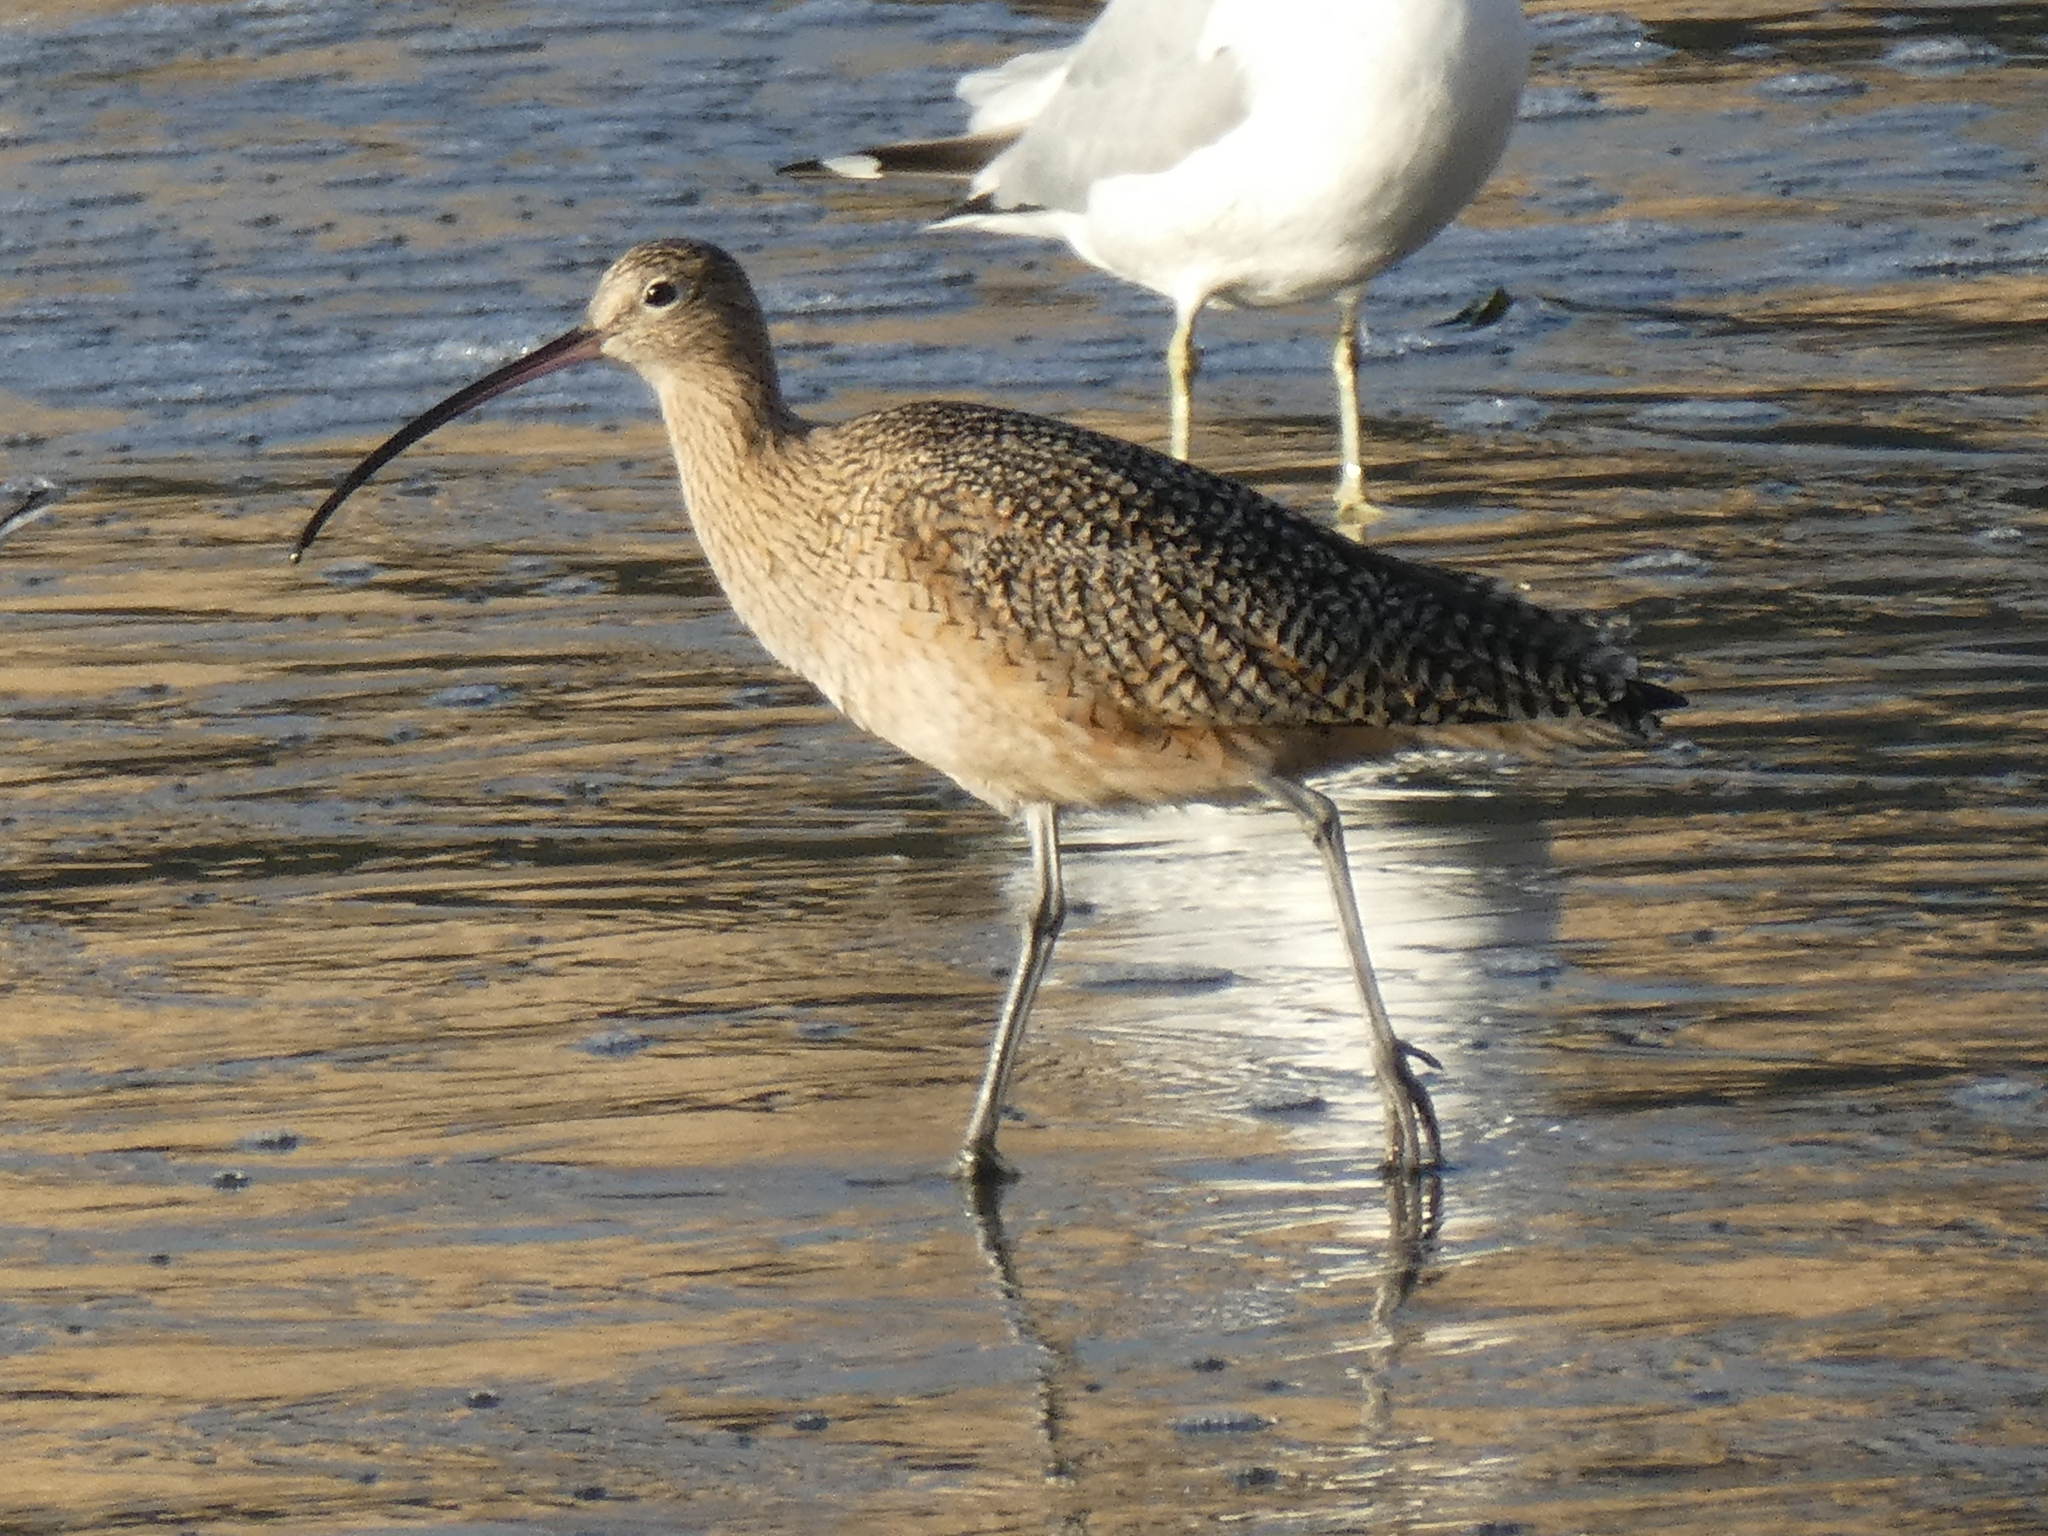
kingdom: Animalia
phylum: Chordata
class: Aves
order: Charadriiformes
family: Scolopacidae
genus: Numenius
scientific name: Numenius americanus
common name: Long-billed curlew
